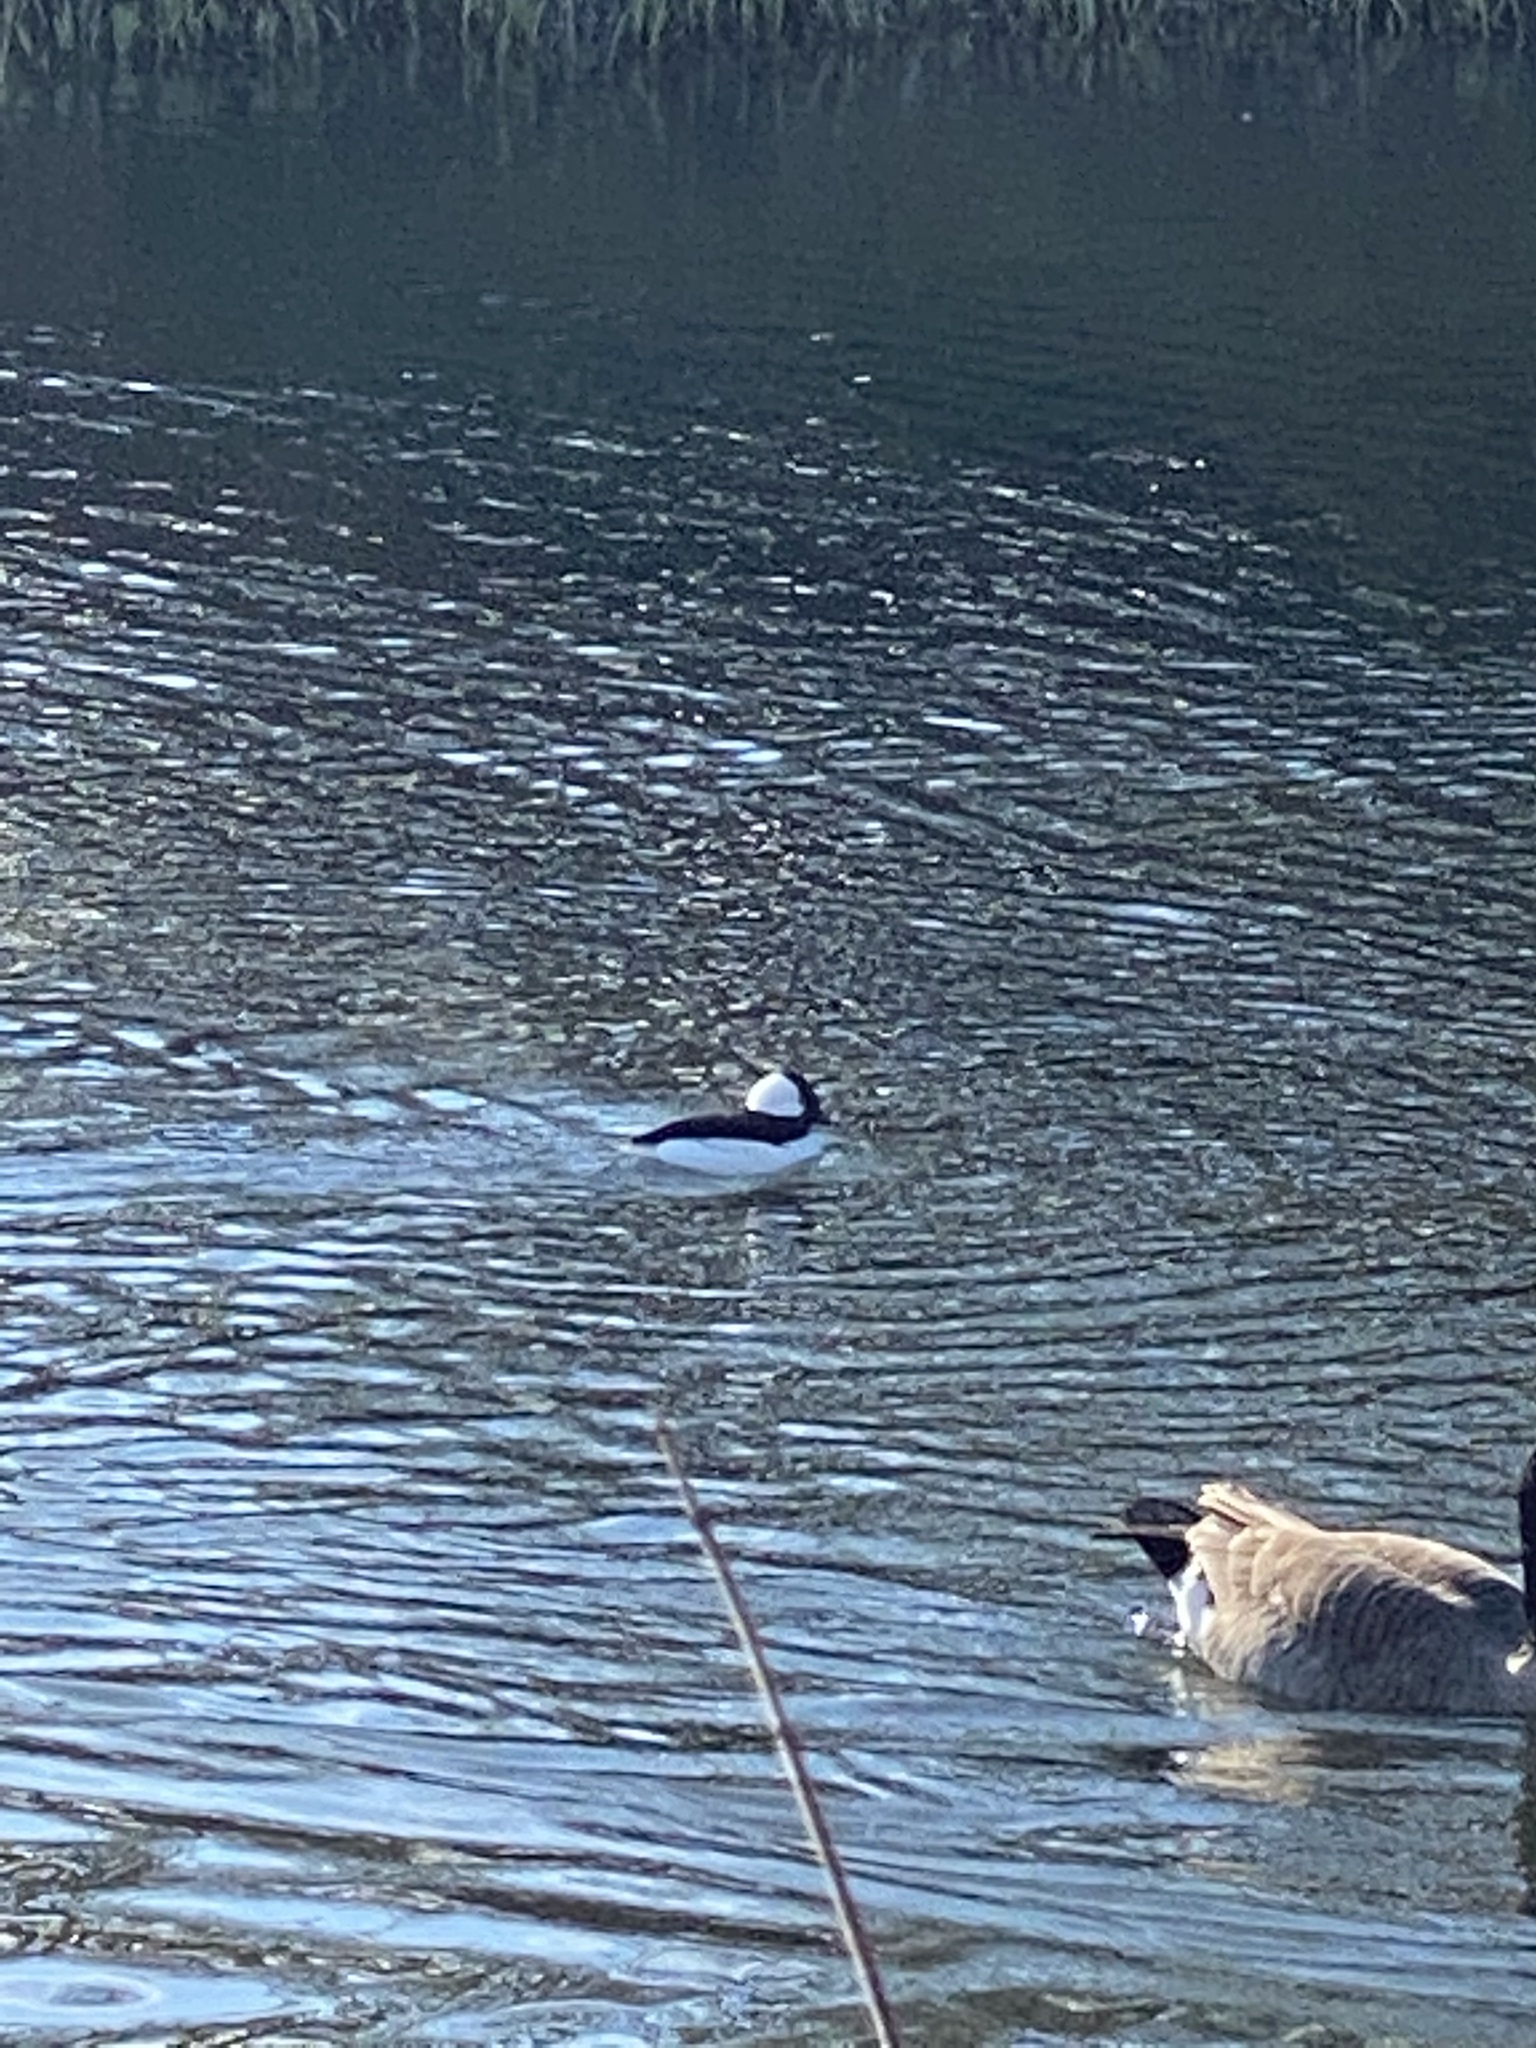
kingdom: Animalia
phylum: Chordata
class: Aves
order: Anseriformes
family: Anatidae
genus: Bucephala
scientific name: Bucephala albeola
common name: Bufflehead
